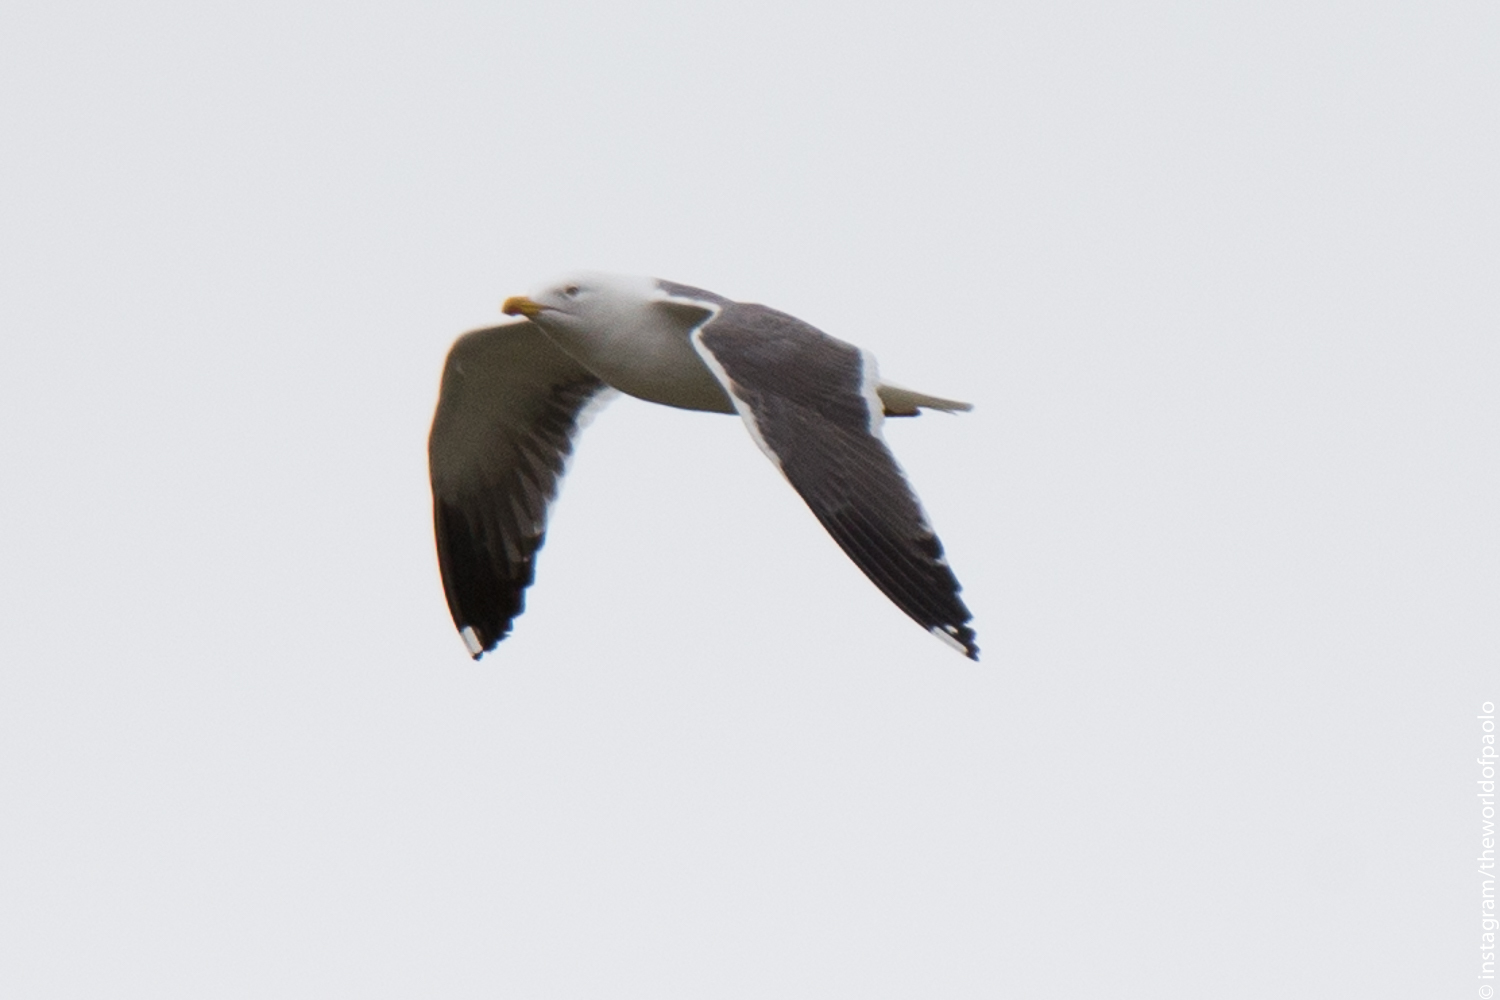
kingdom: Animalia
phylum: Chordata
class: Aves
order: Charadriiformes
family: Laridae
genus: Larus
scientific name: Larus marinus
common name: Great black-backed gull
